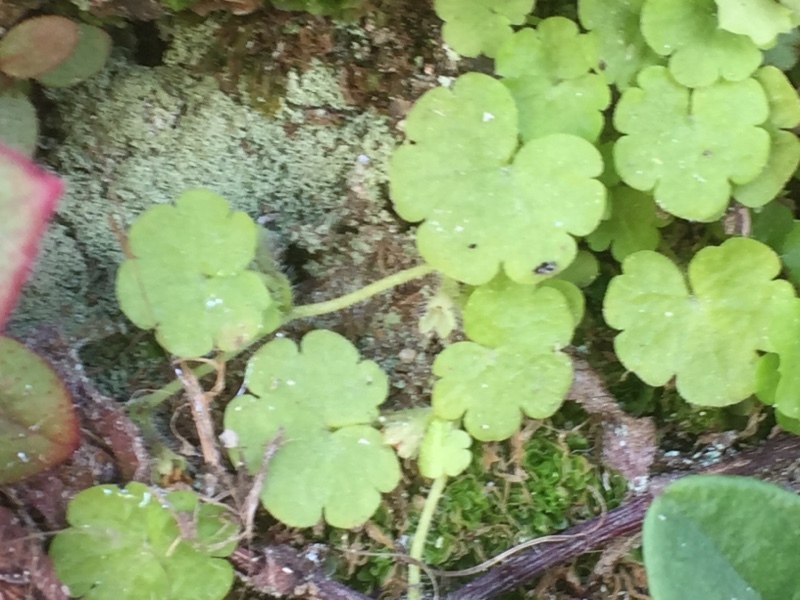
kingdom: Plantae
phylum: Tracheophyta
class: Magnoliopsida
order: Lamiales
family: Plantaginaceae
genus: Sibthorpia
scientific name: Sibthorpia europaea
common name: Cornish moneywort
